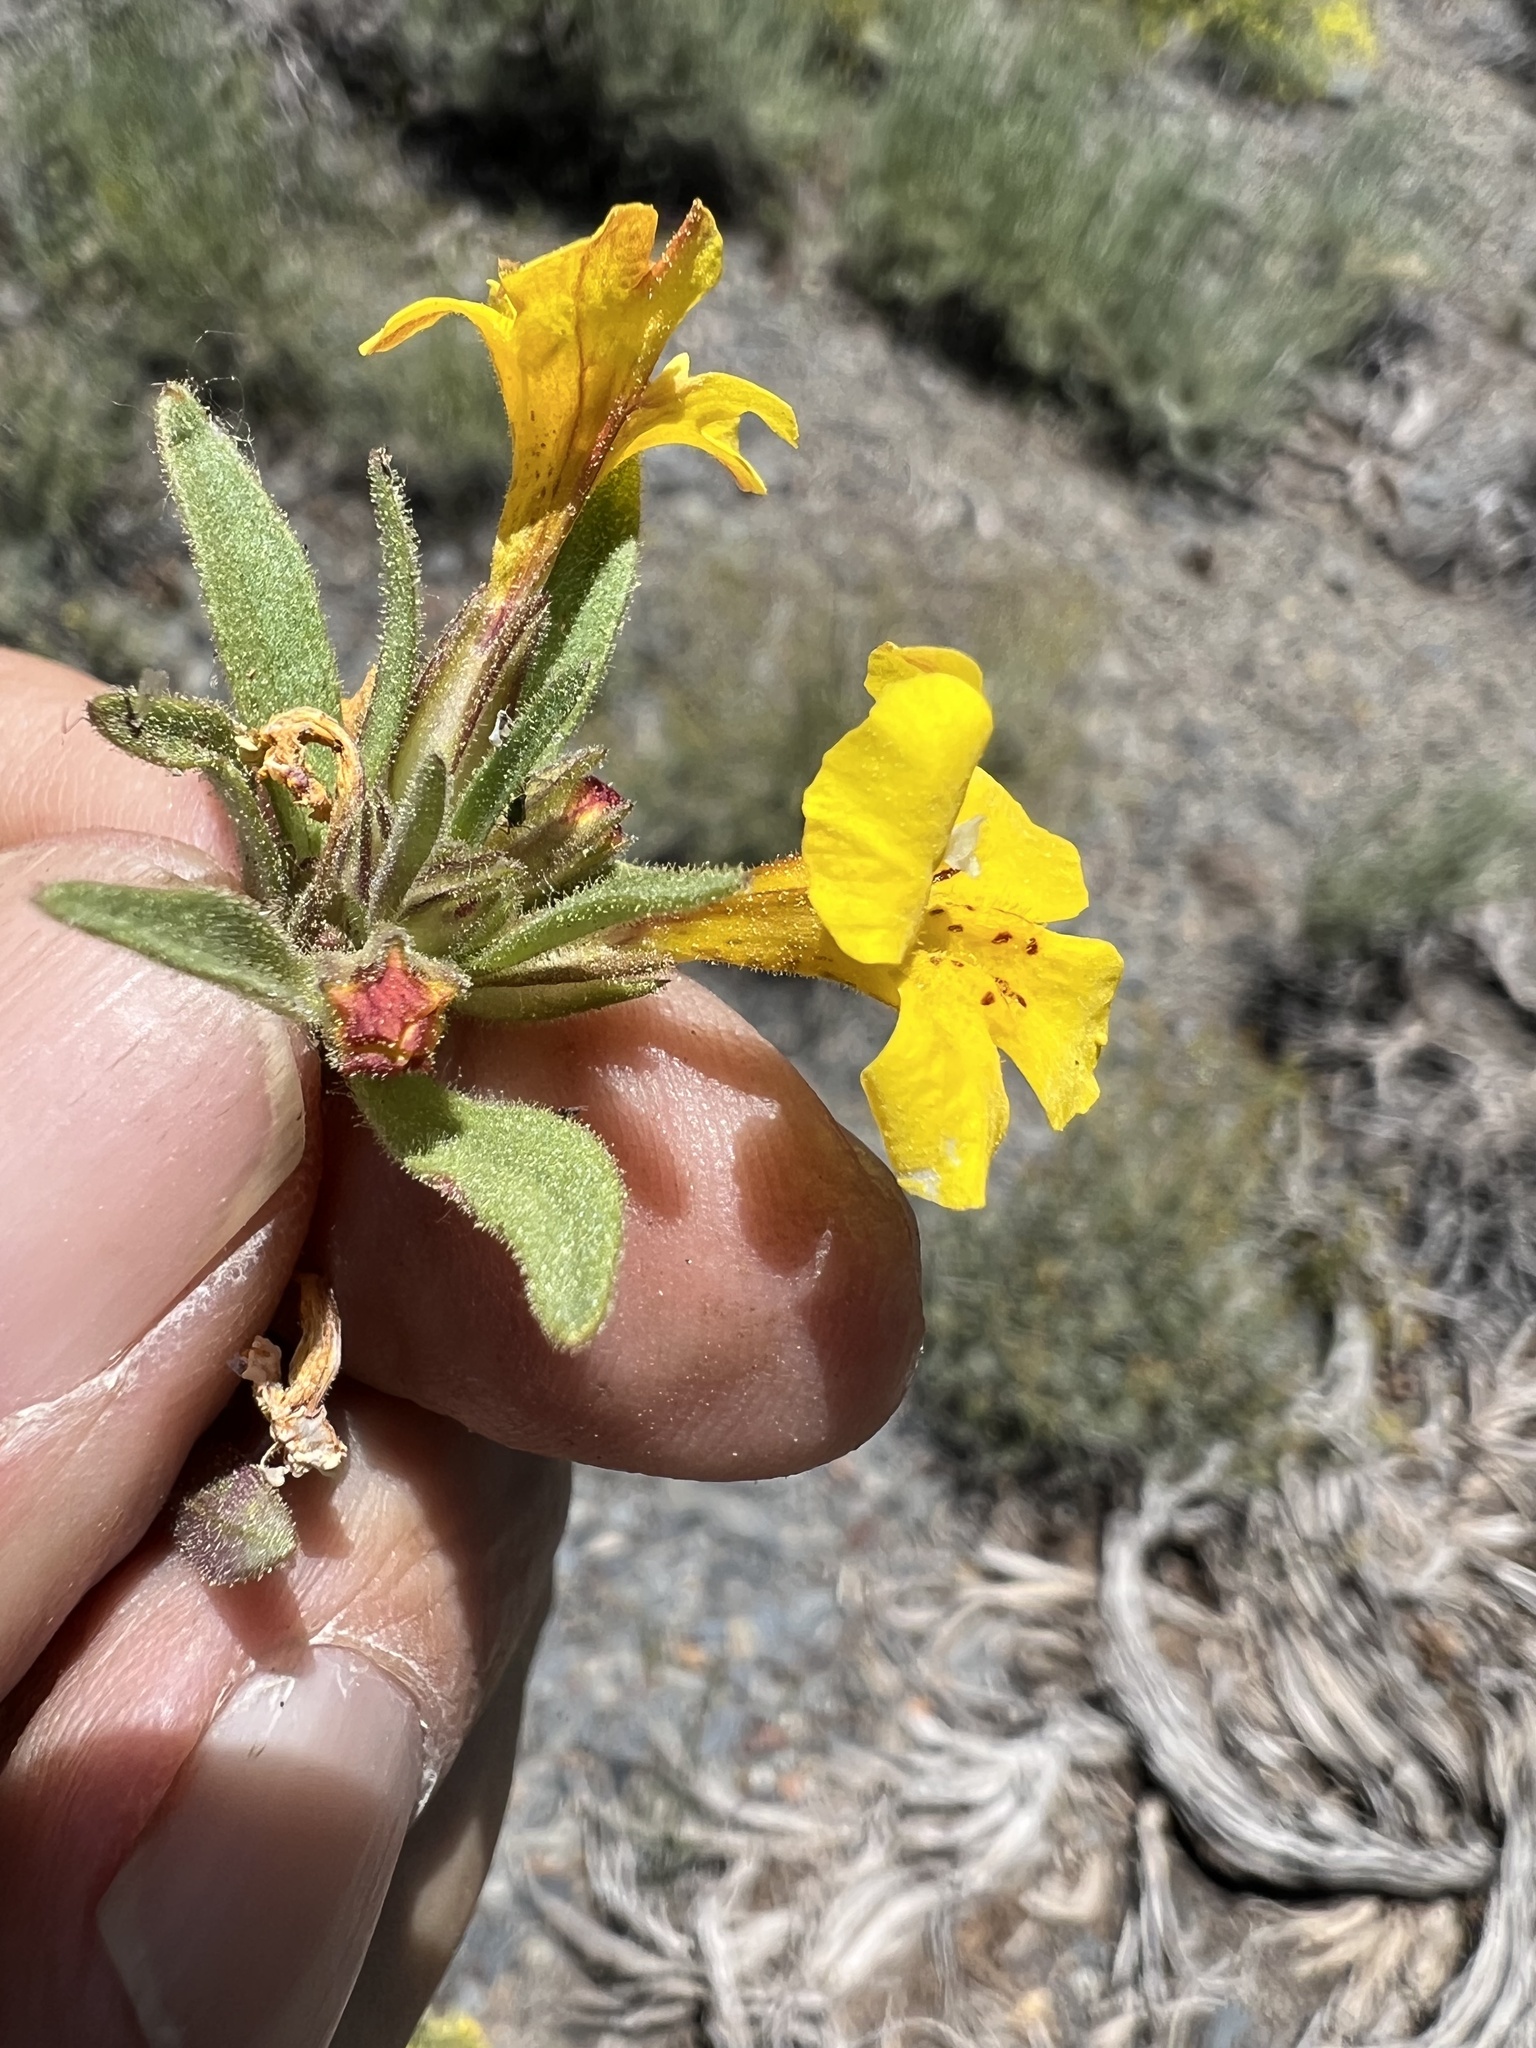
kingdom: Plantae
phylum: Tracheophyta
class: Magnoliopsida
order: Lamiales
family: Phrymaceae
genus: Diplacus
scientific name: Diplacus mephiticus
